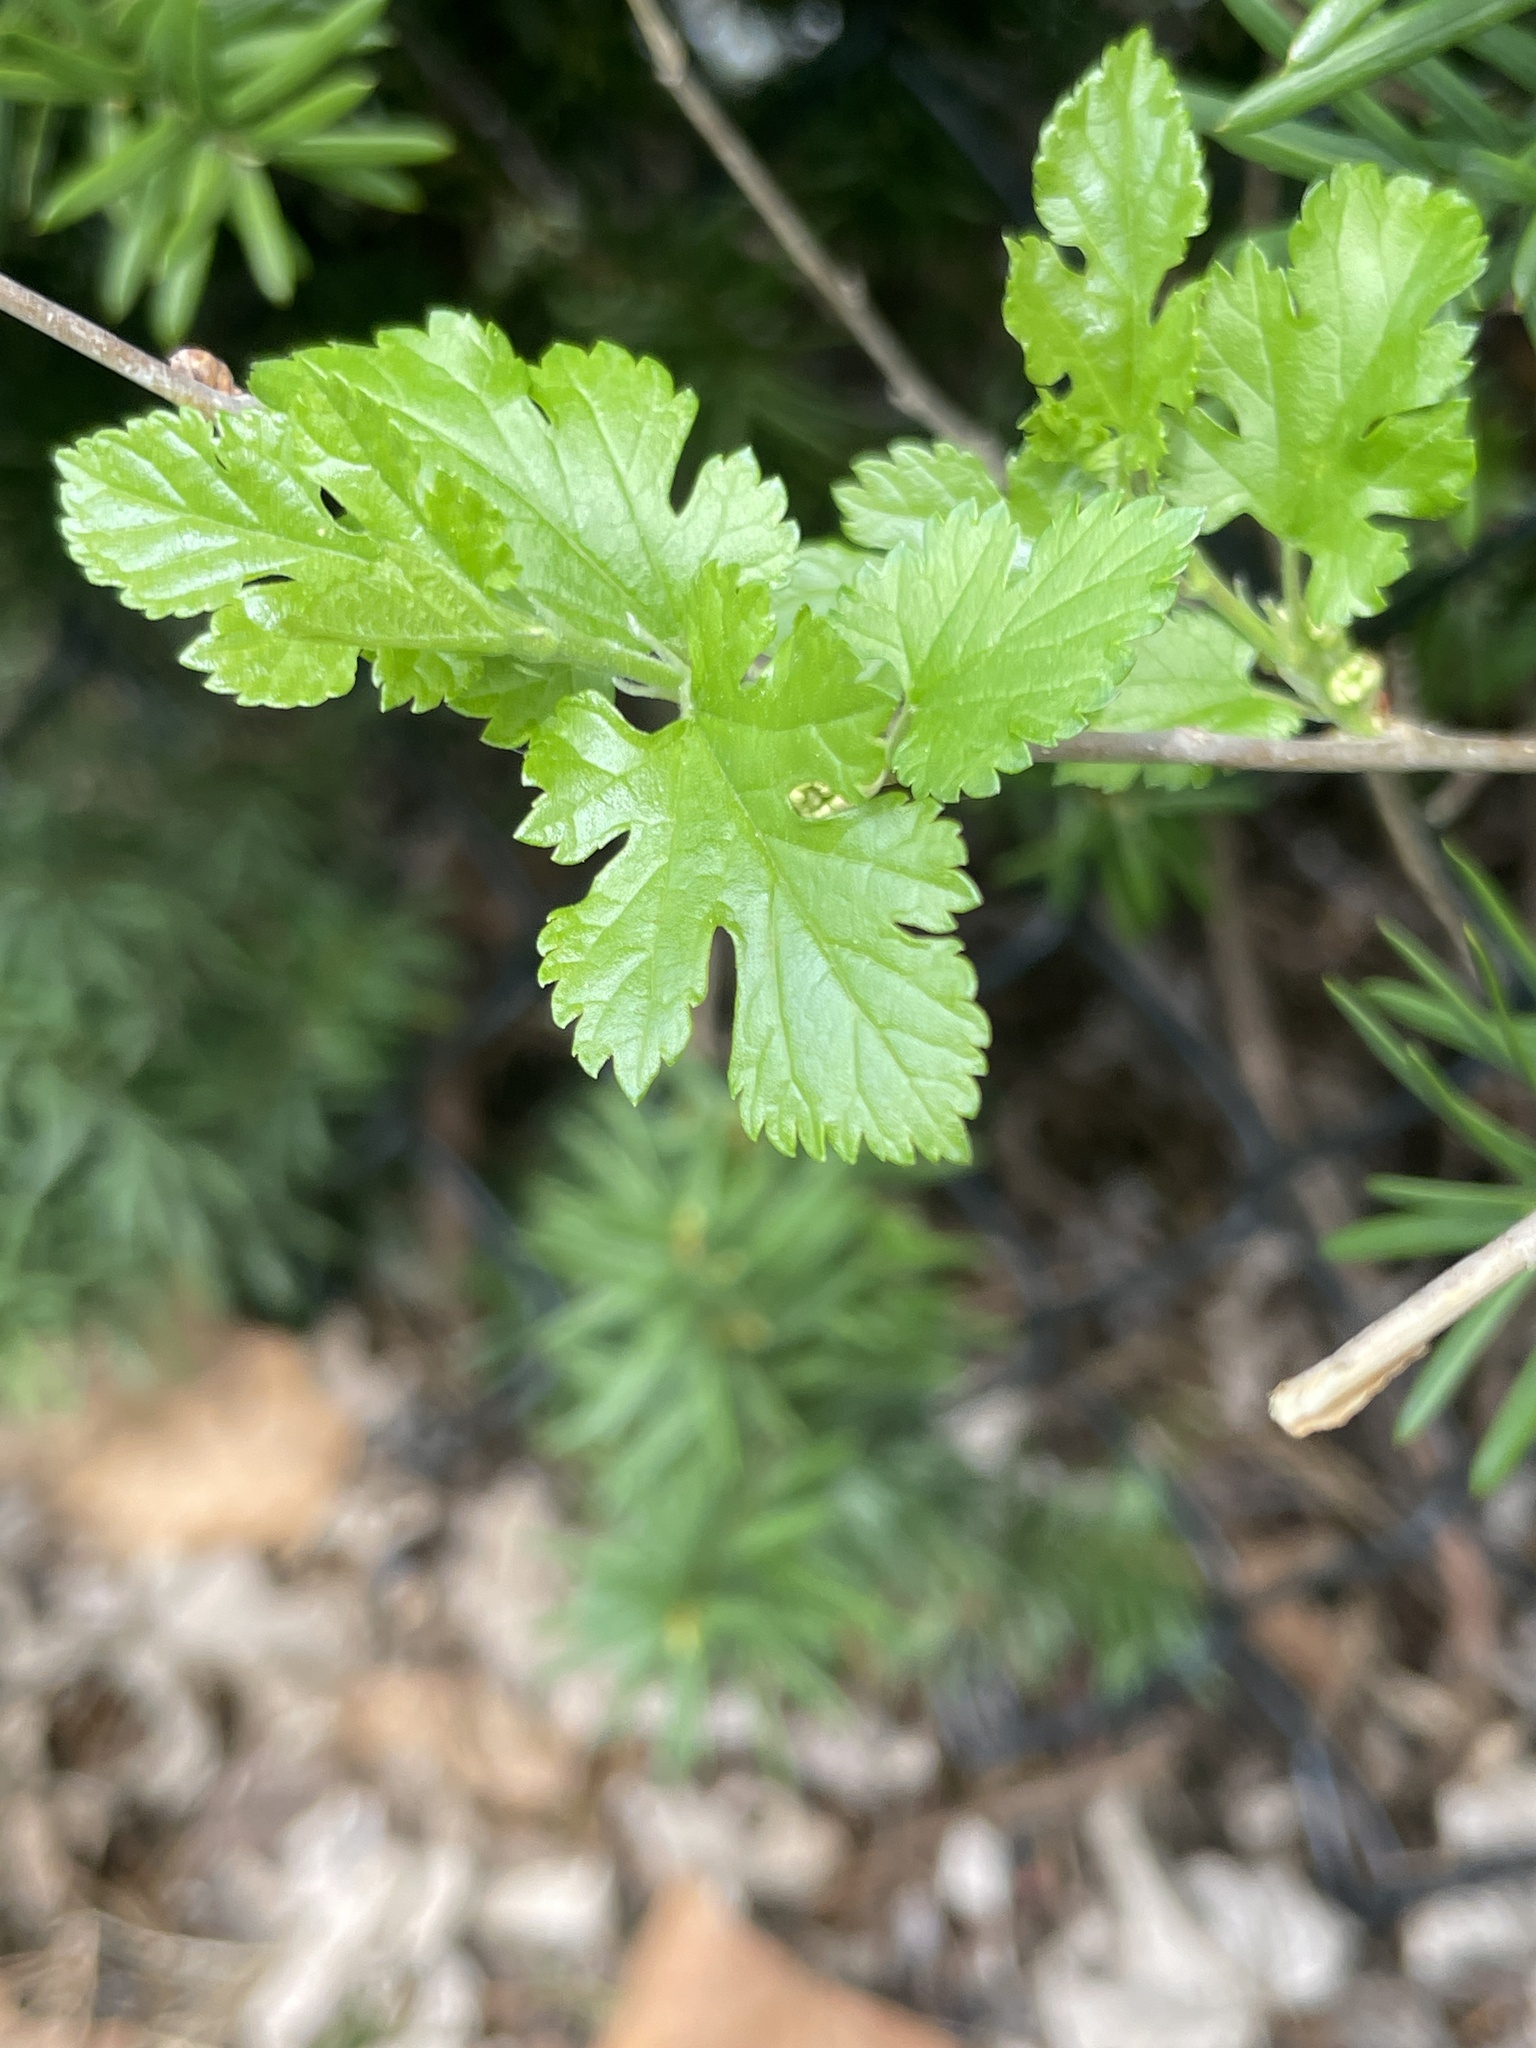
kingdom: Plantae
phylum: Tracheophyta
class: Magnoliopsida
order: Rosales
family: Moraceae
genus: Morus
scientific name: Morus alba
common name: White mulberry
